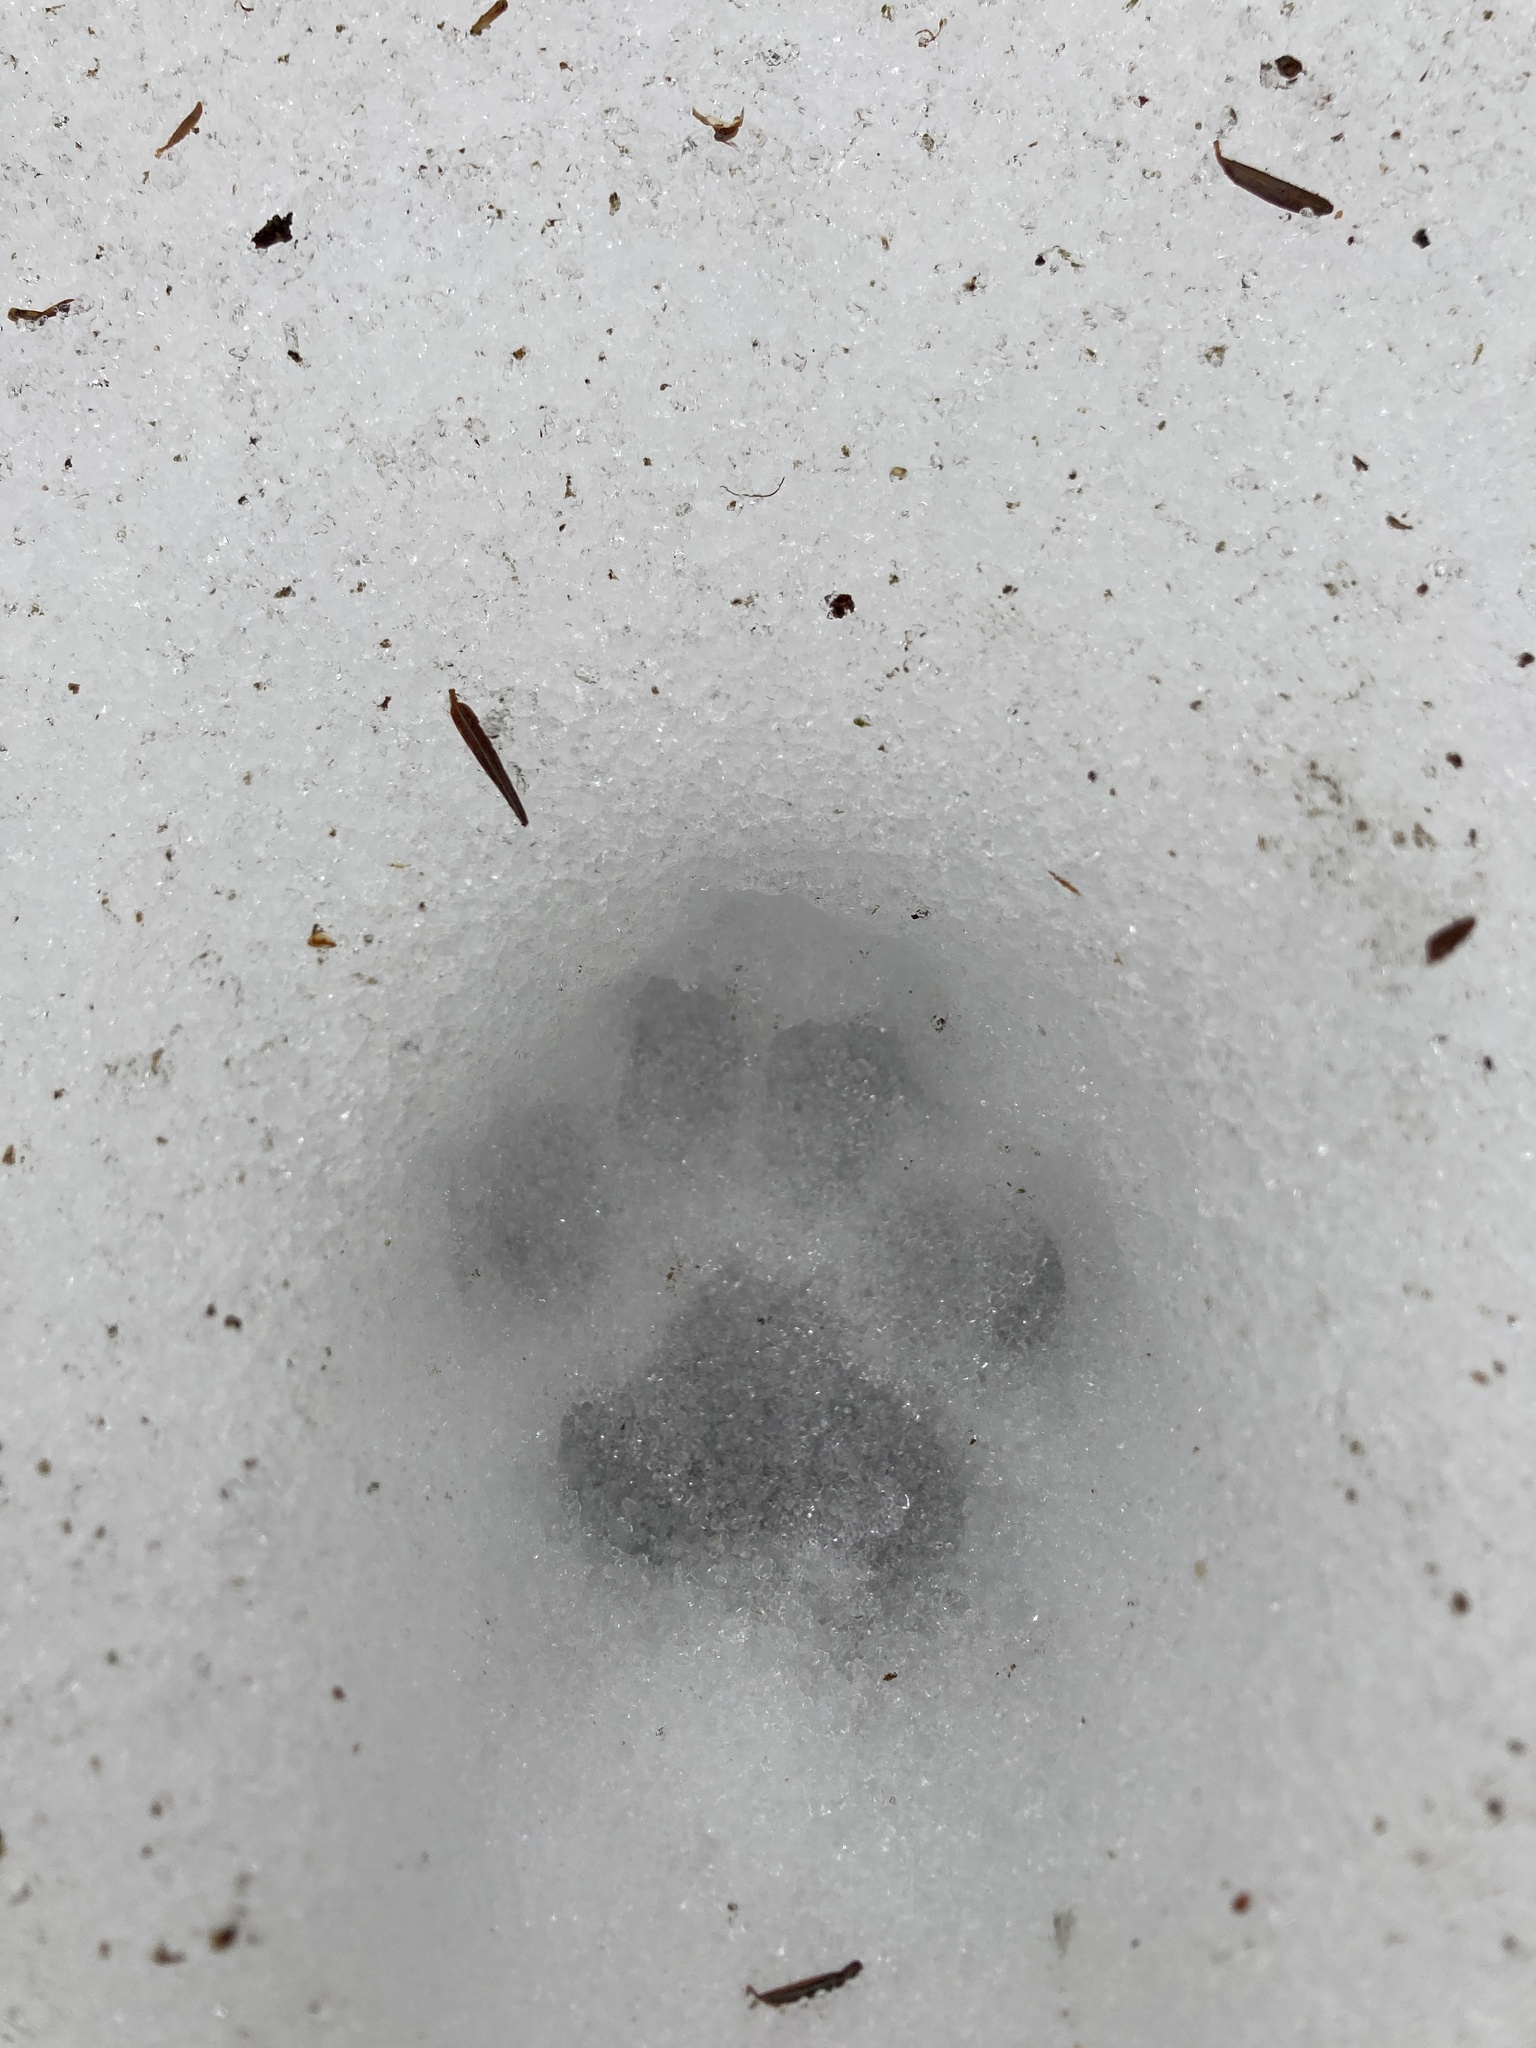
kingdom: Animalia
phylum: Chordata
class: Mammalia
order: Carnivora
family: Felidae
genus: Lynx
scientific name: Lynx rufus
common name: Bobcat
